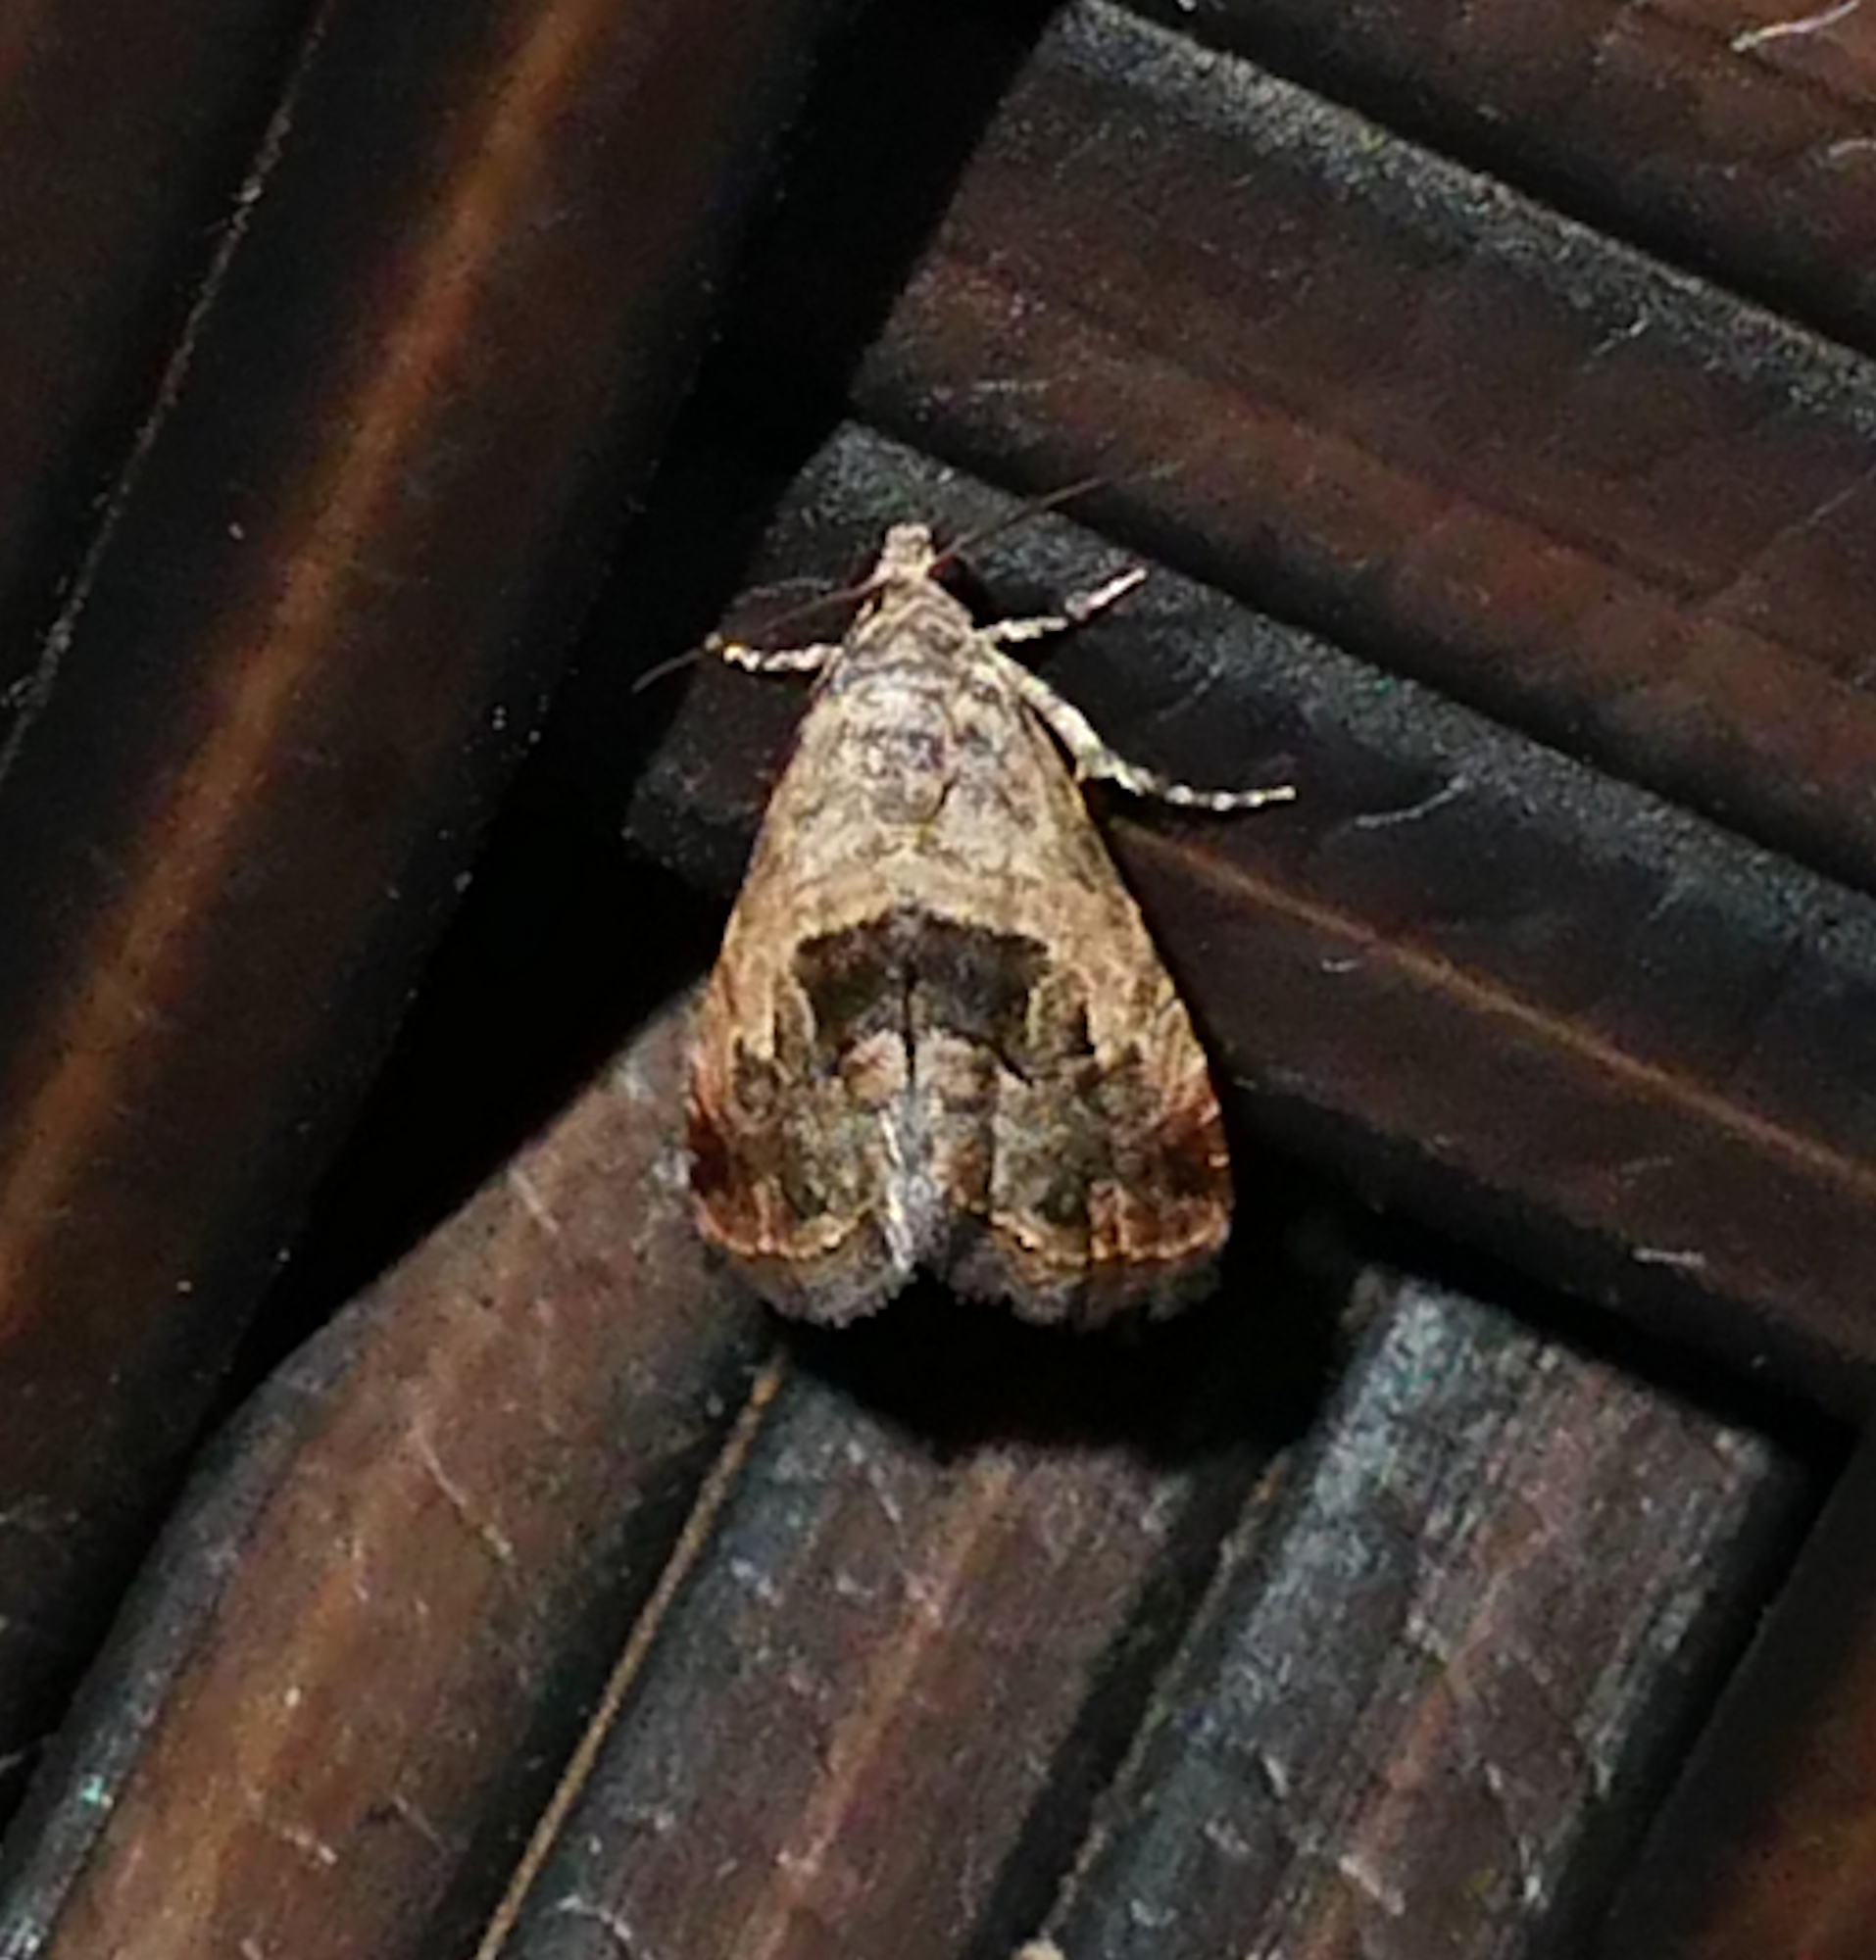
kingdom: Animalia
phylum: Arthropoda
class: Insecta
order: Lepidoptera
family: Noctuidae
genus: Tripudia
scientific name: Tripudia quadrifera
